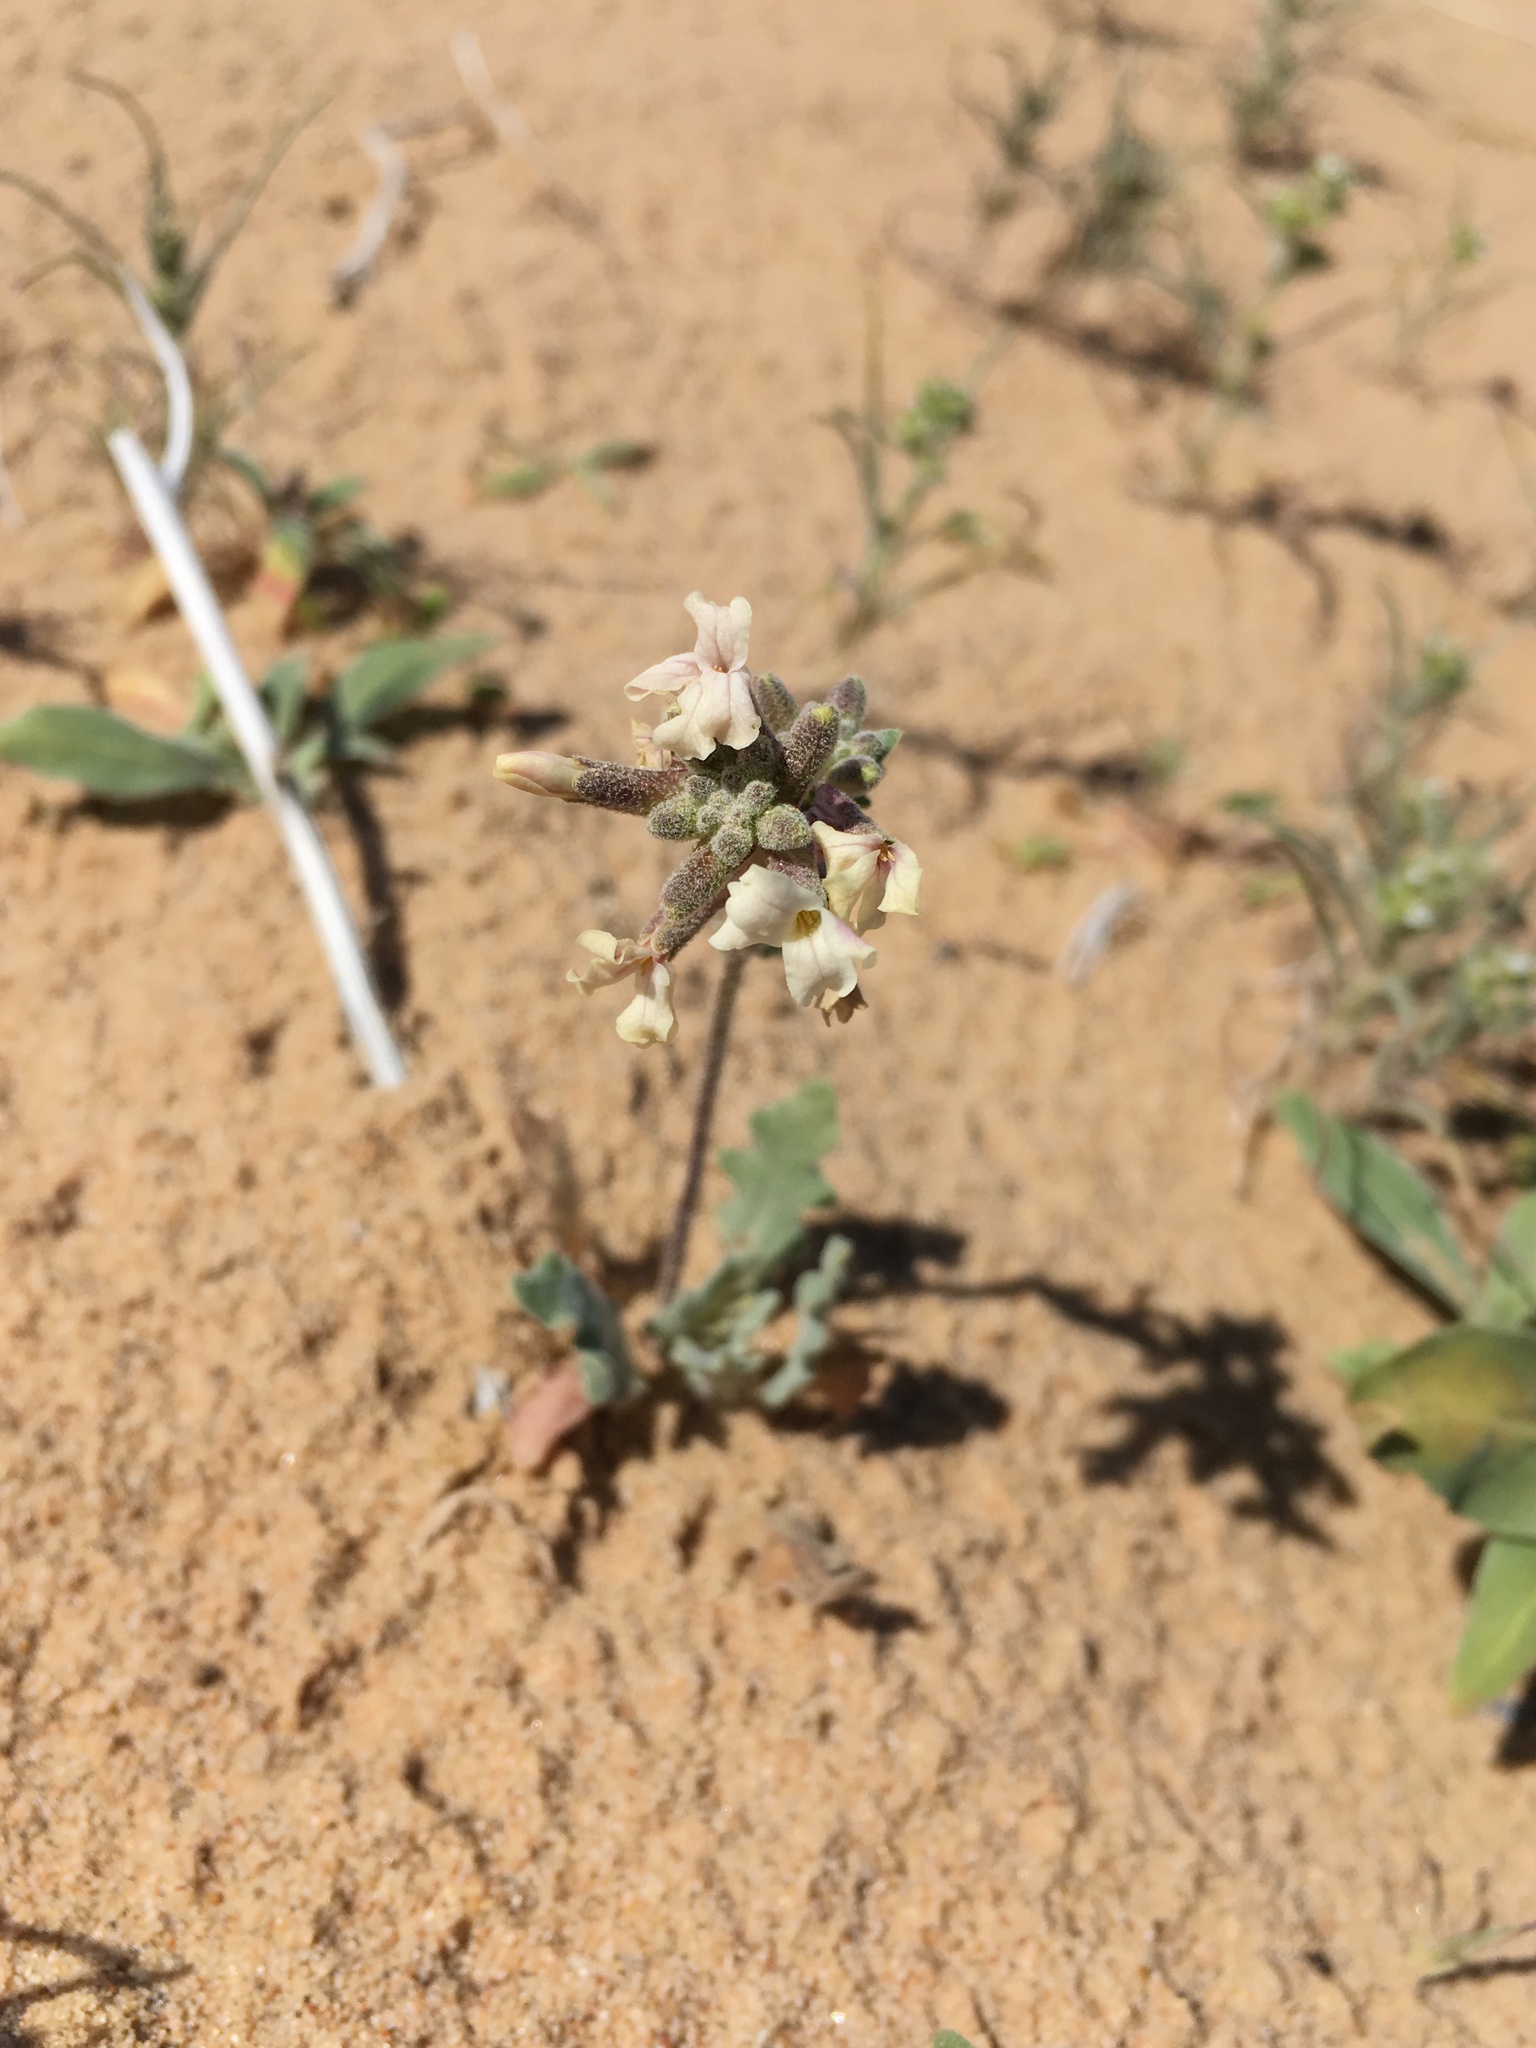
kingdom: Plantae
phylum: Tracheophyta
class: Magnoliopsida
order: Brassicales
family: Brassicaceae
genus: Dithyrea
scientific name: Dithyrea californica
